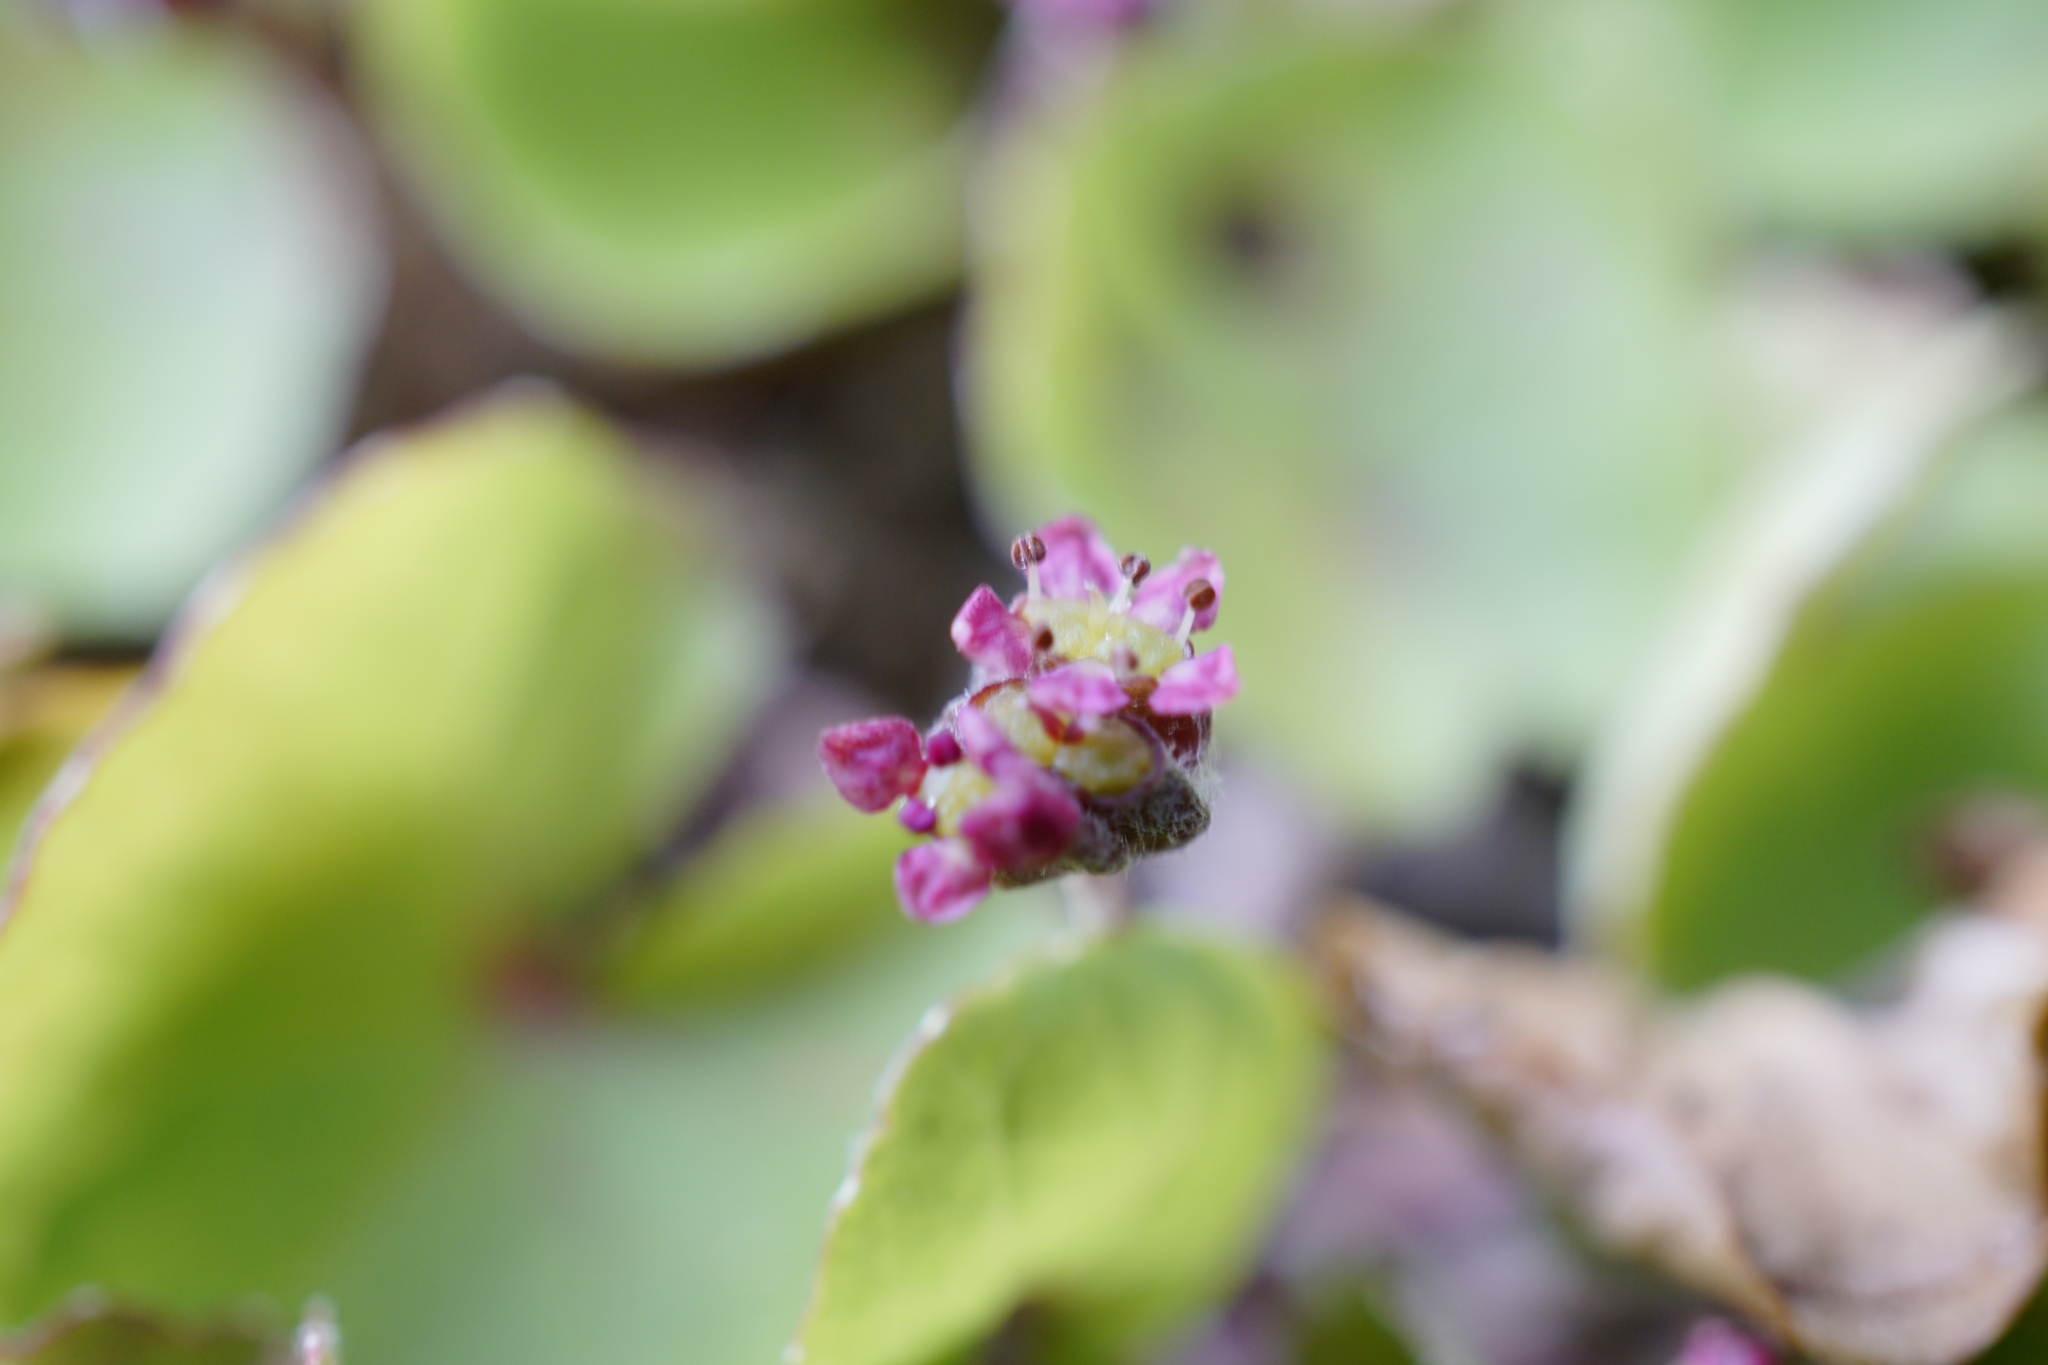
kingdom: Plantae
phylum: Tracheophyta
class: Magnoliopsida
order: Apiales
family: Apiaceae
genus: Centella
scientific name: Centella asiatica
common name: Spadeleaf
